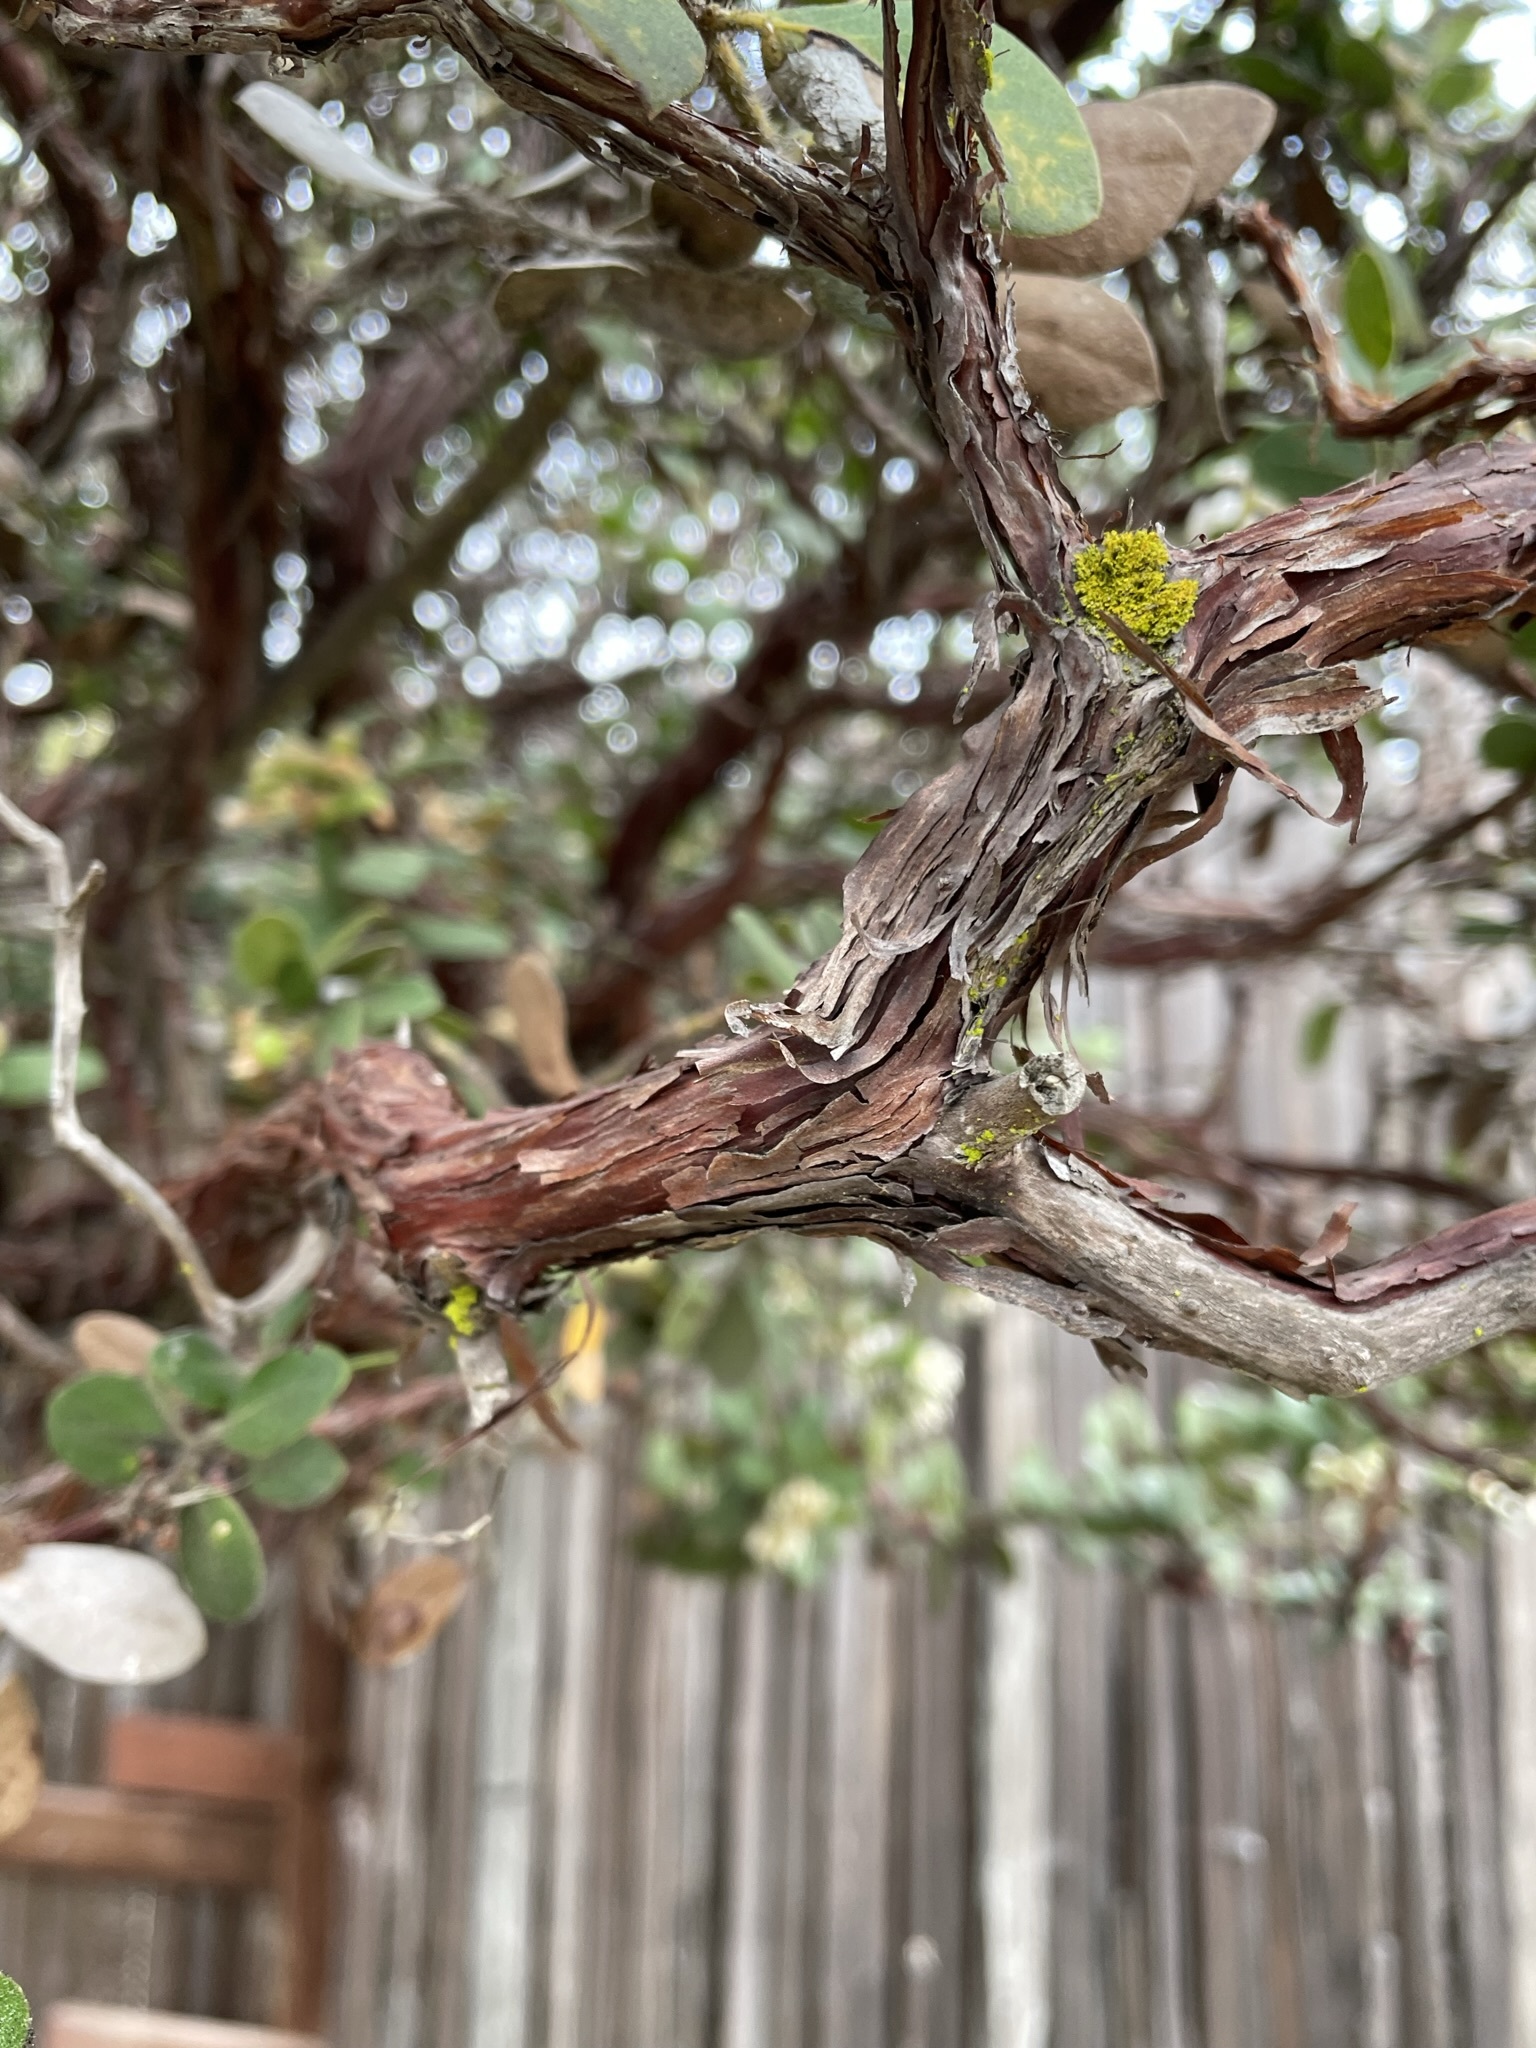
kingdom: Plantae
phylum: Tracheophyta
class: Magnoliopsida
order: Ericales
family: Ericaceae
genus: Arctostaphylos
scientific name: Arctostaphylos tomentosa
